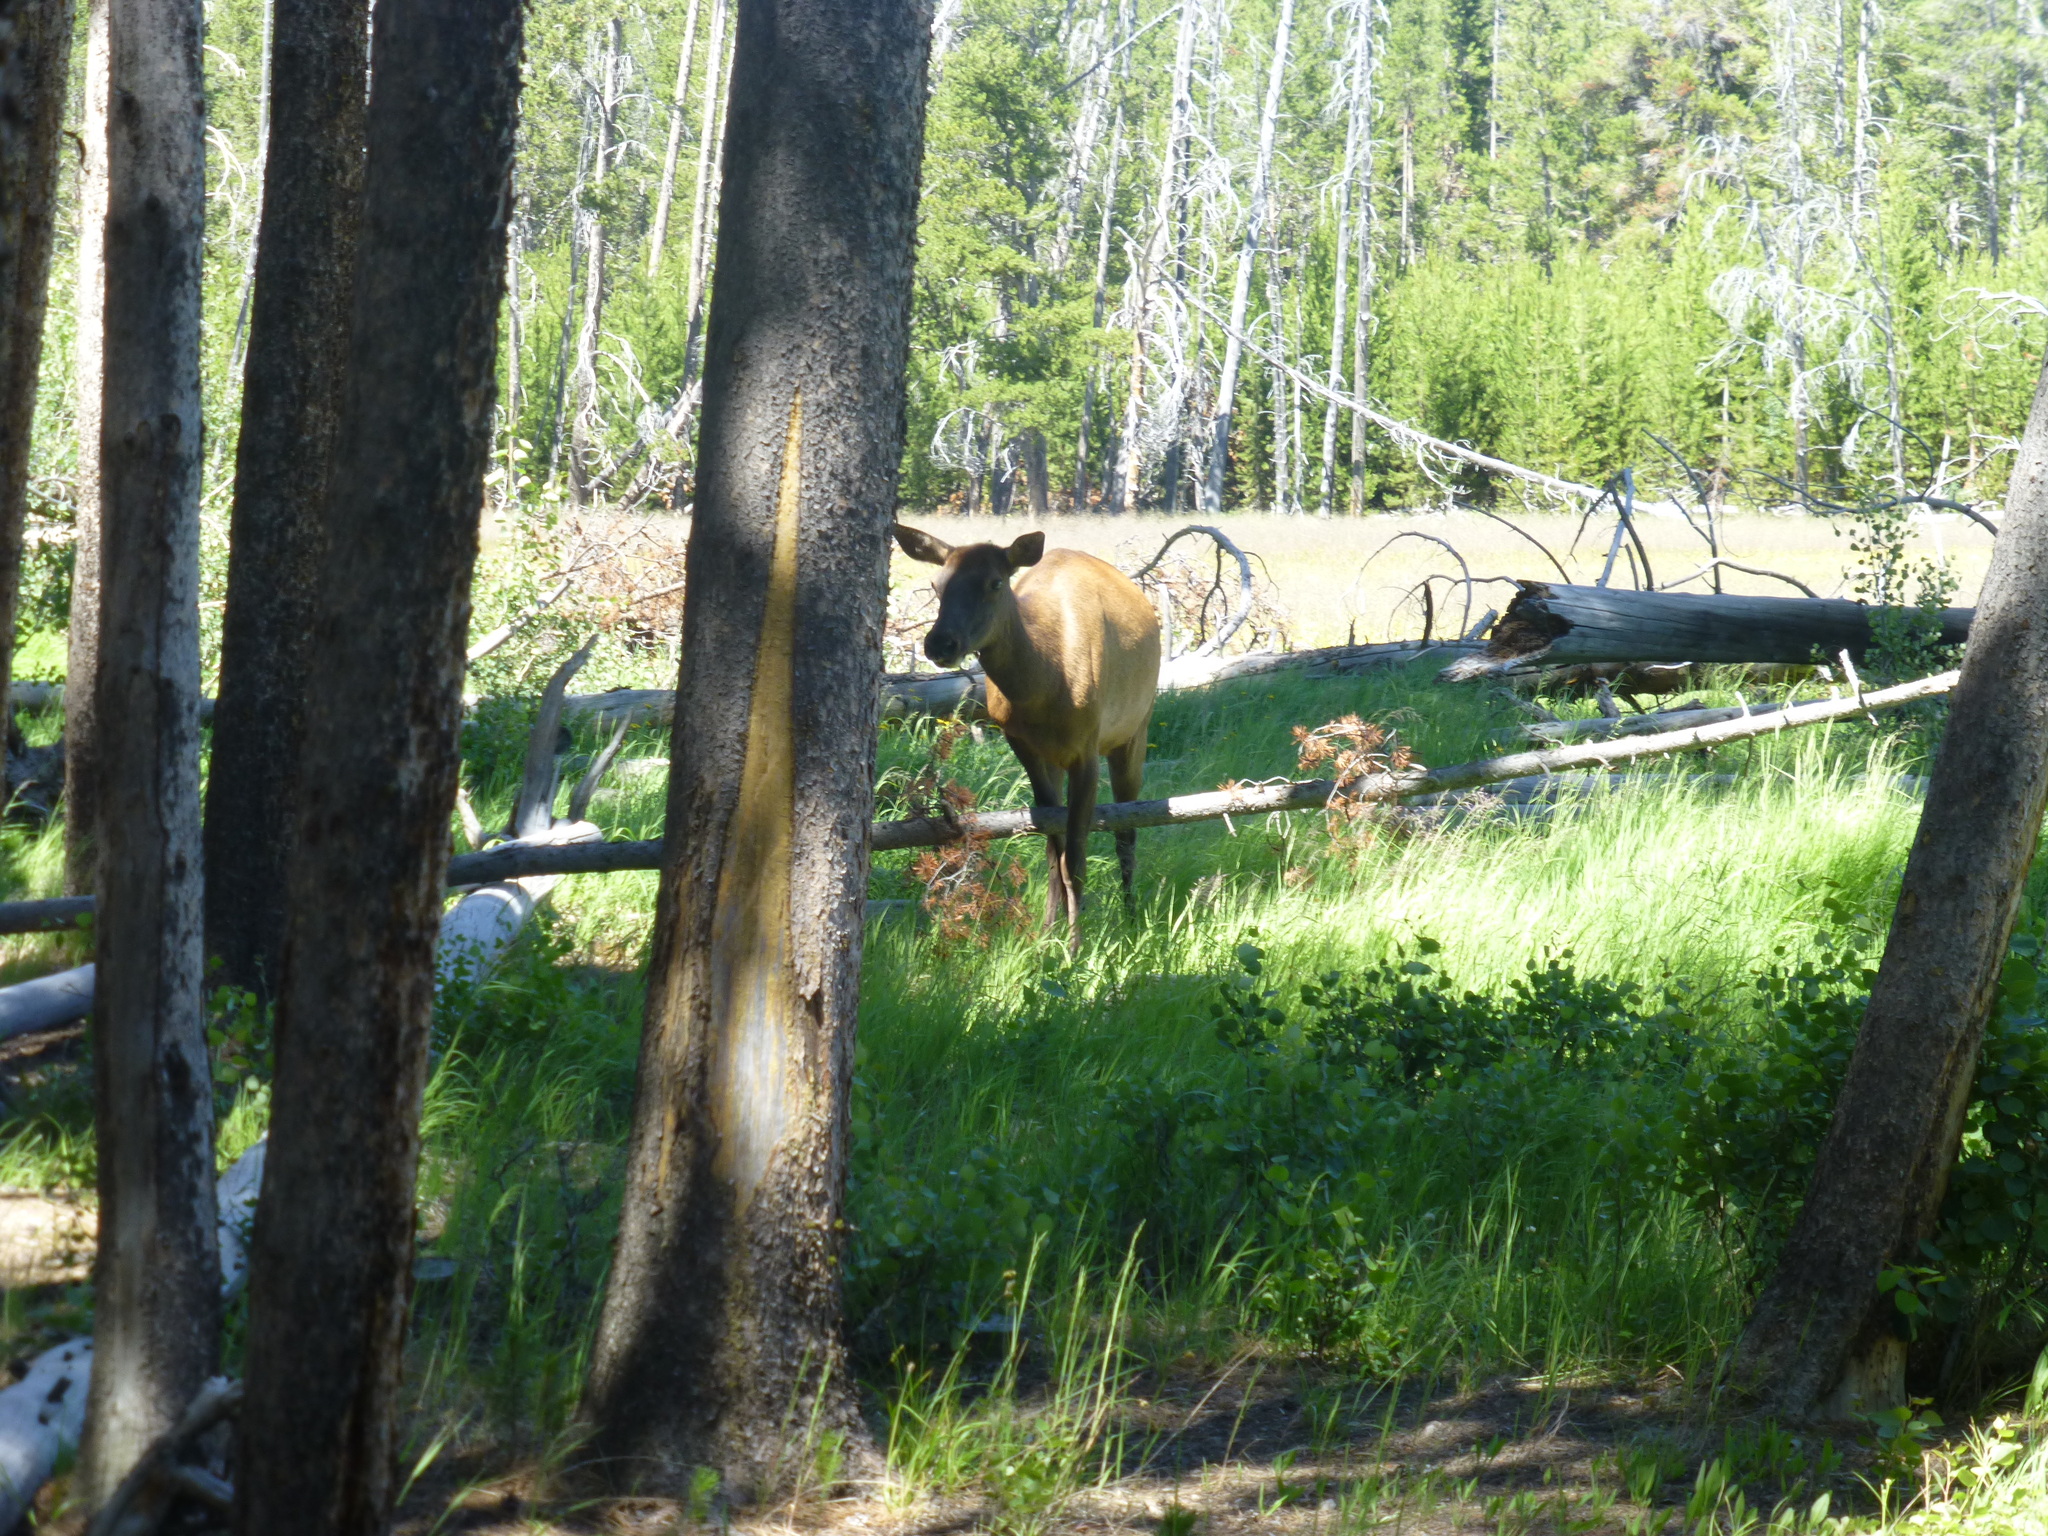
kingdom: Animalia
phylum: Chordata
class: Mammalia
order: Artiodactyla
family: Cervidae
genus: Cervus
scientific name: Cervus elaphus
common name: Red deer
